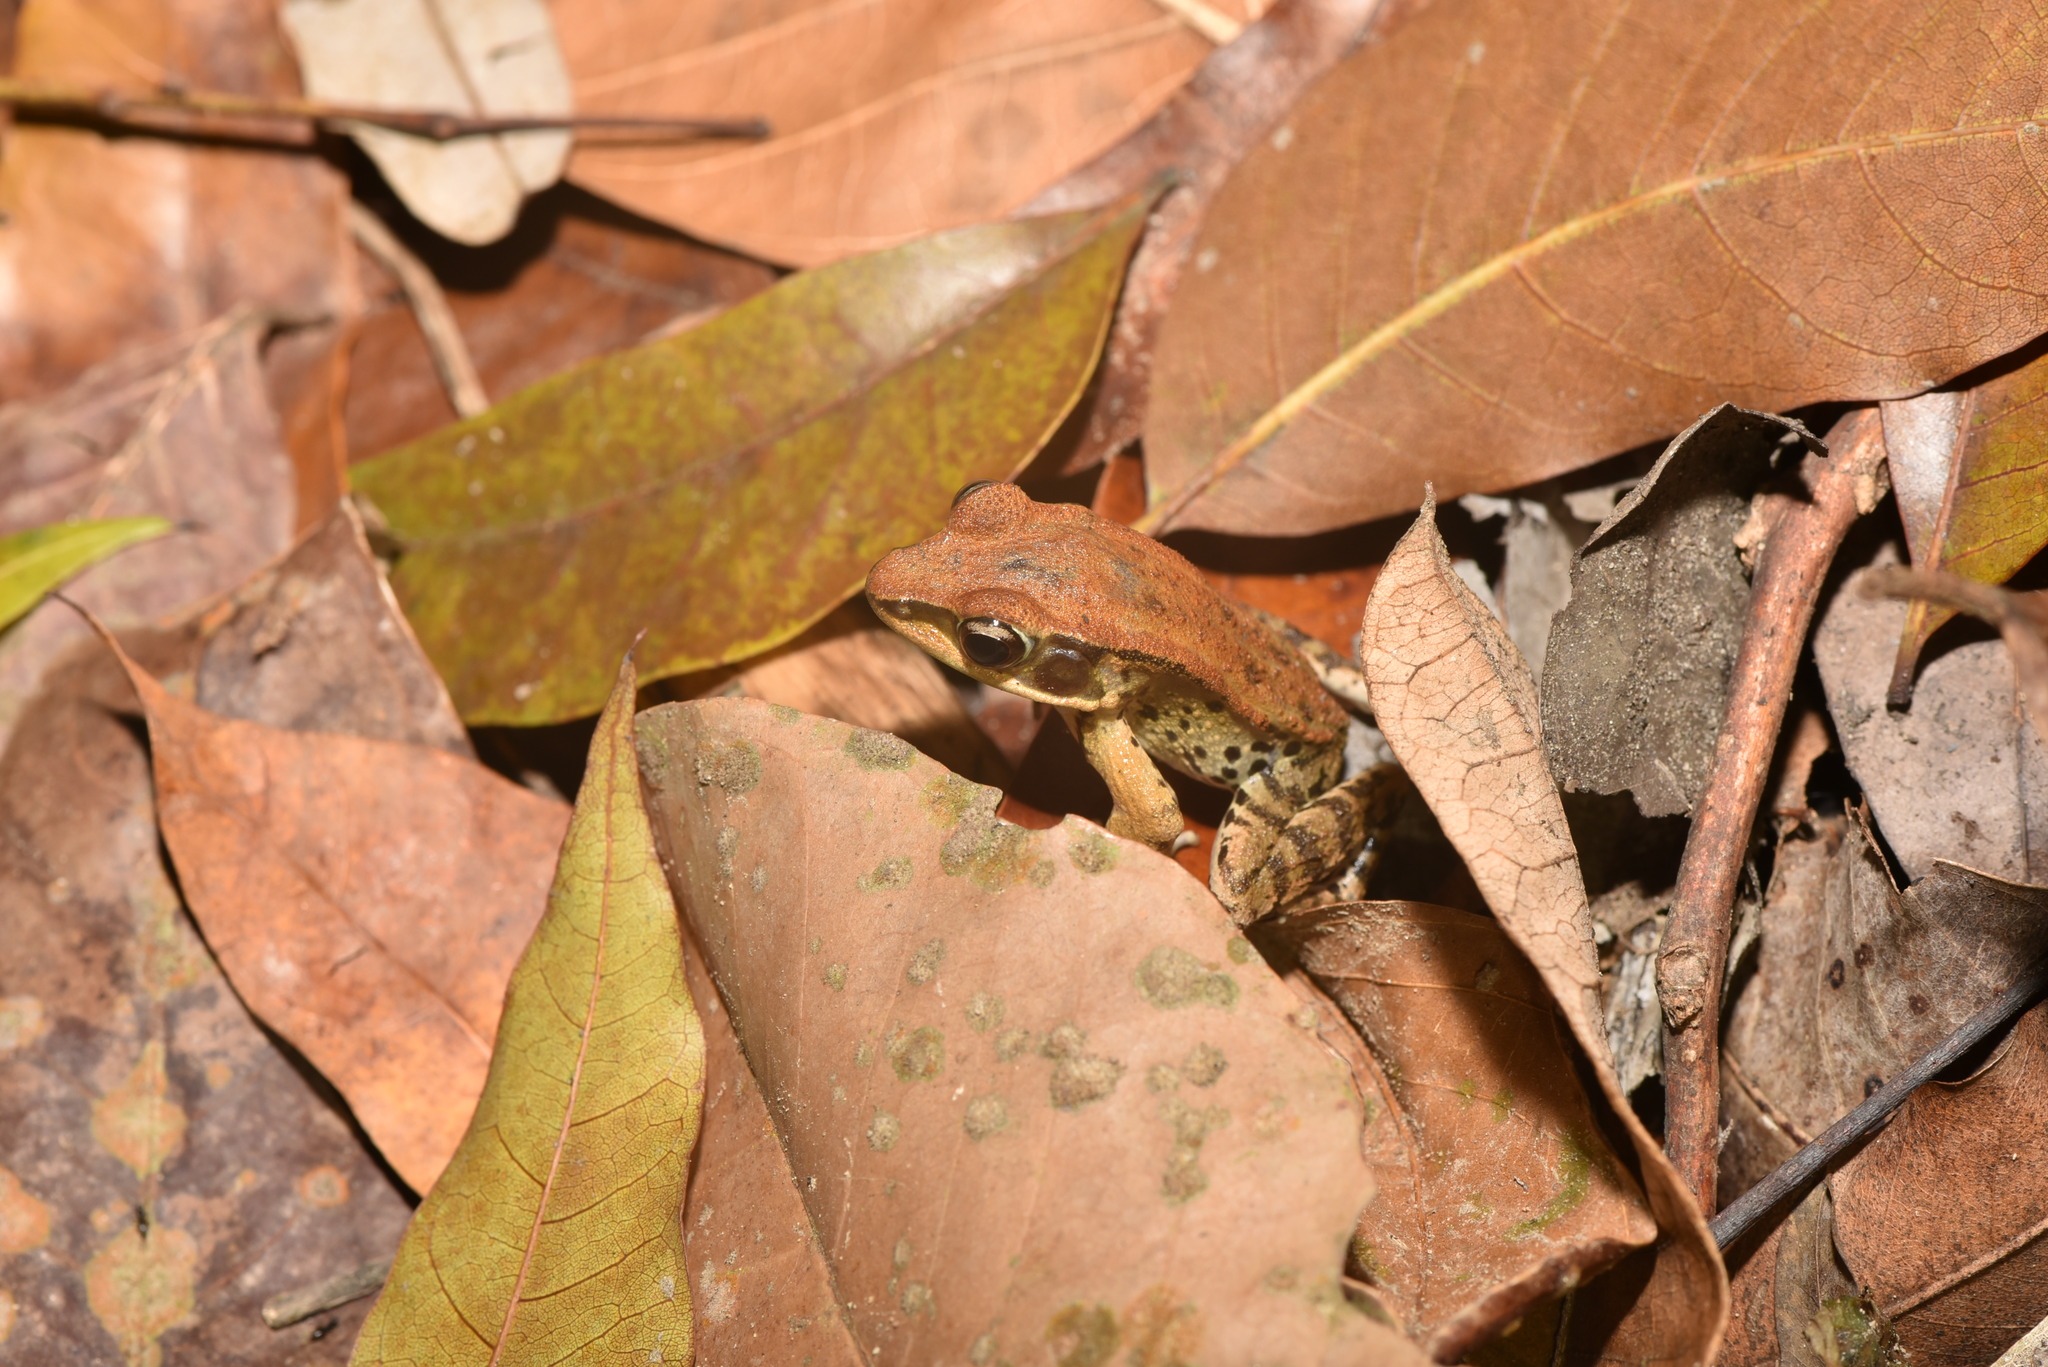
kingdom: Animalia
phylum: Chordata
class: Amphibia
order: Anura
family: Ranidae
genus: Hylarana
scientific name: Hylarana latouchii
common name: Broad-folded frog
